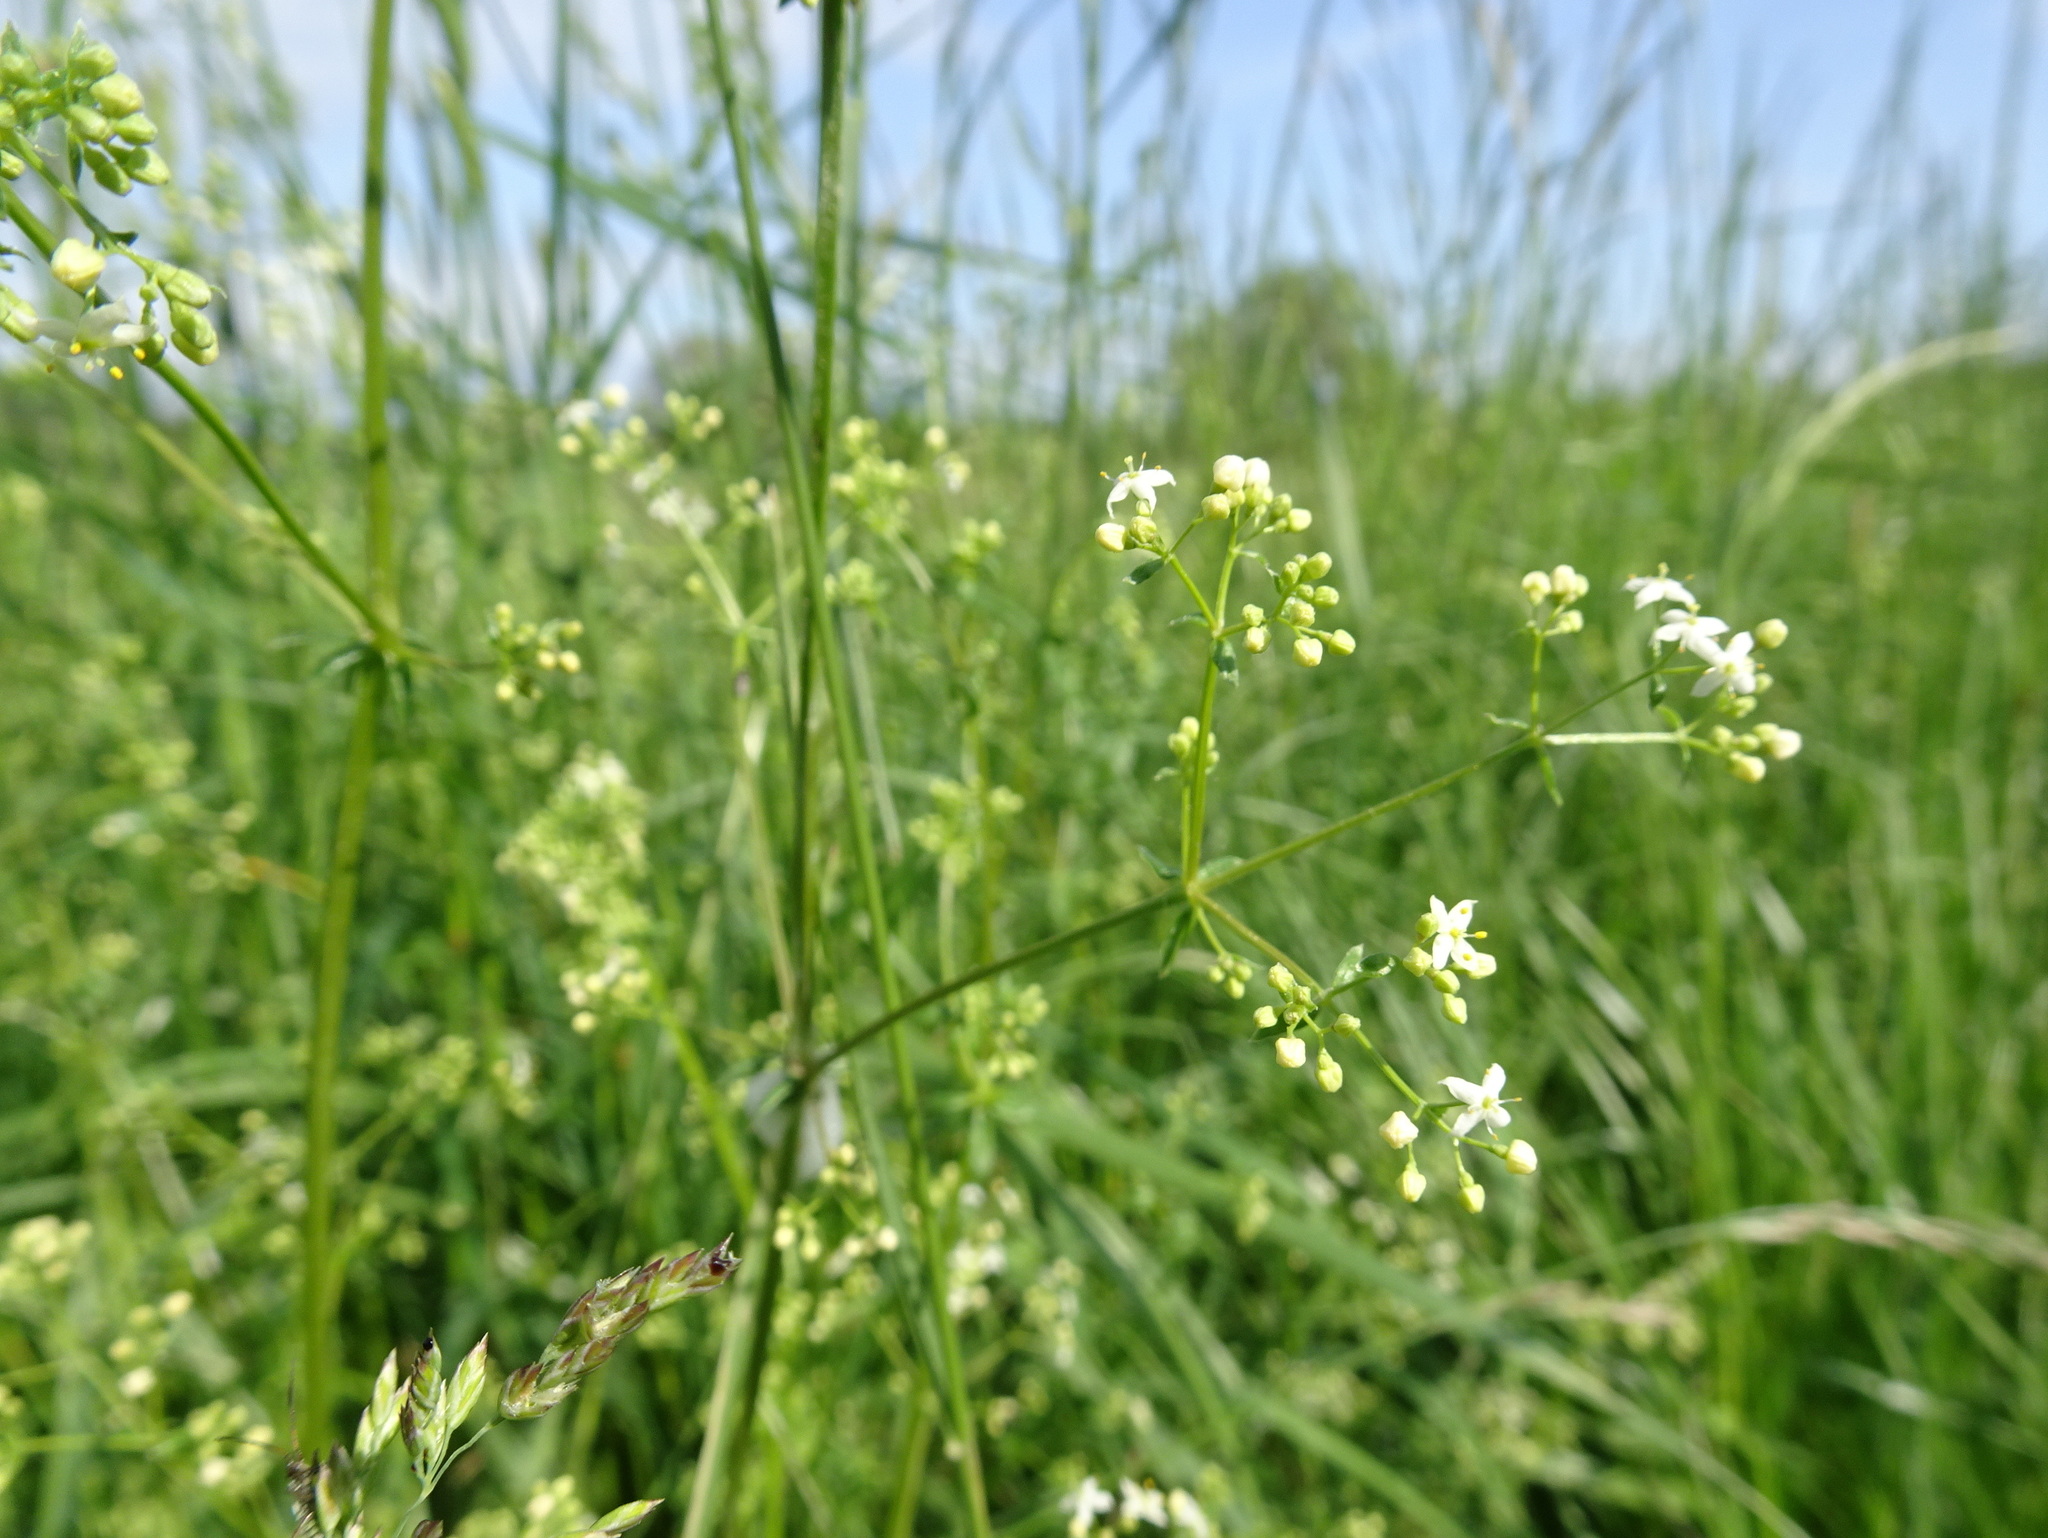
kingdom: Plantae
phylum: Tracheophyta
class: Magnoliopsida
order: Gentianales
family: Rubiaceae
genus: Galium
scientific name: Galium album
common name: White bedstraw
